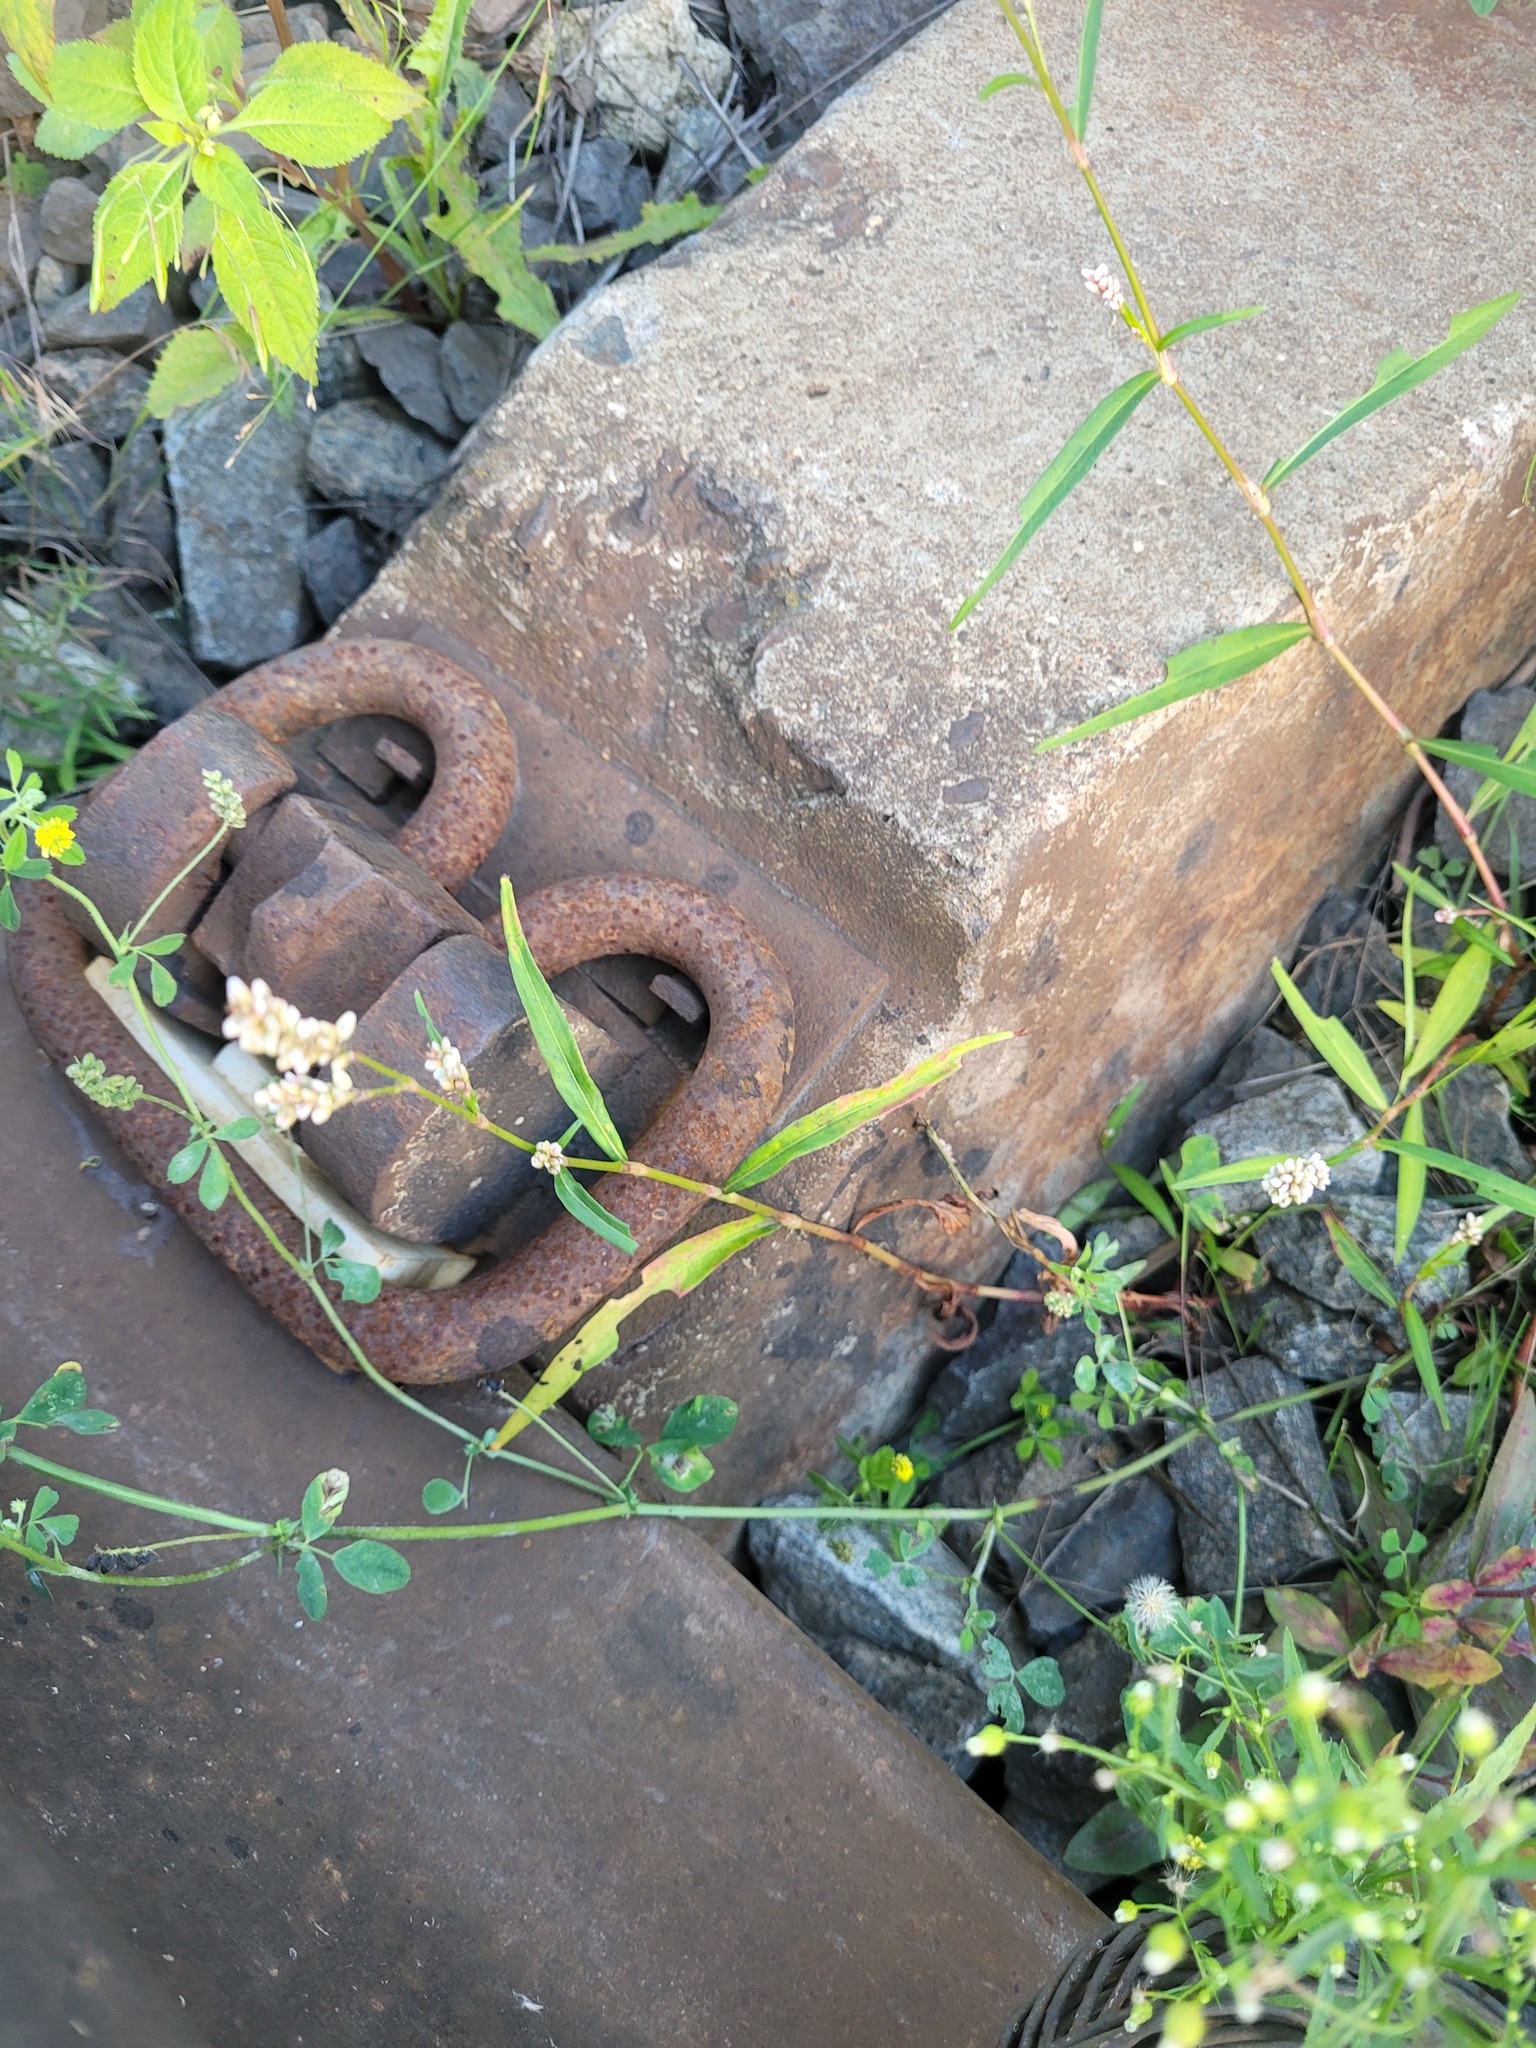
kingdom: Plantae
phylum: Tracheophyta
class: Magnoliopsida
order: Caryophyllales
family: Polygonaceae
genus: Persicaria
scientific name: Persicaria maculosa
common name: Redshank
